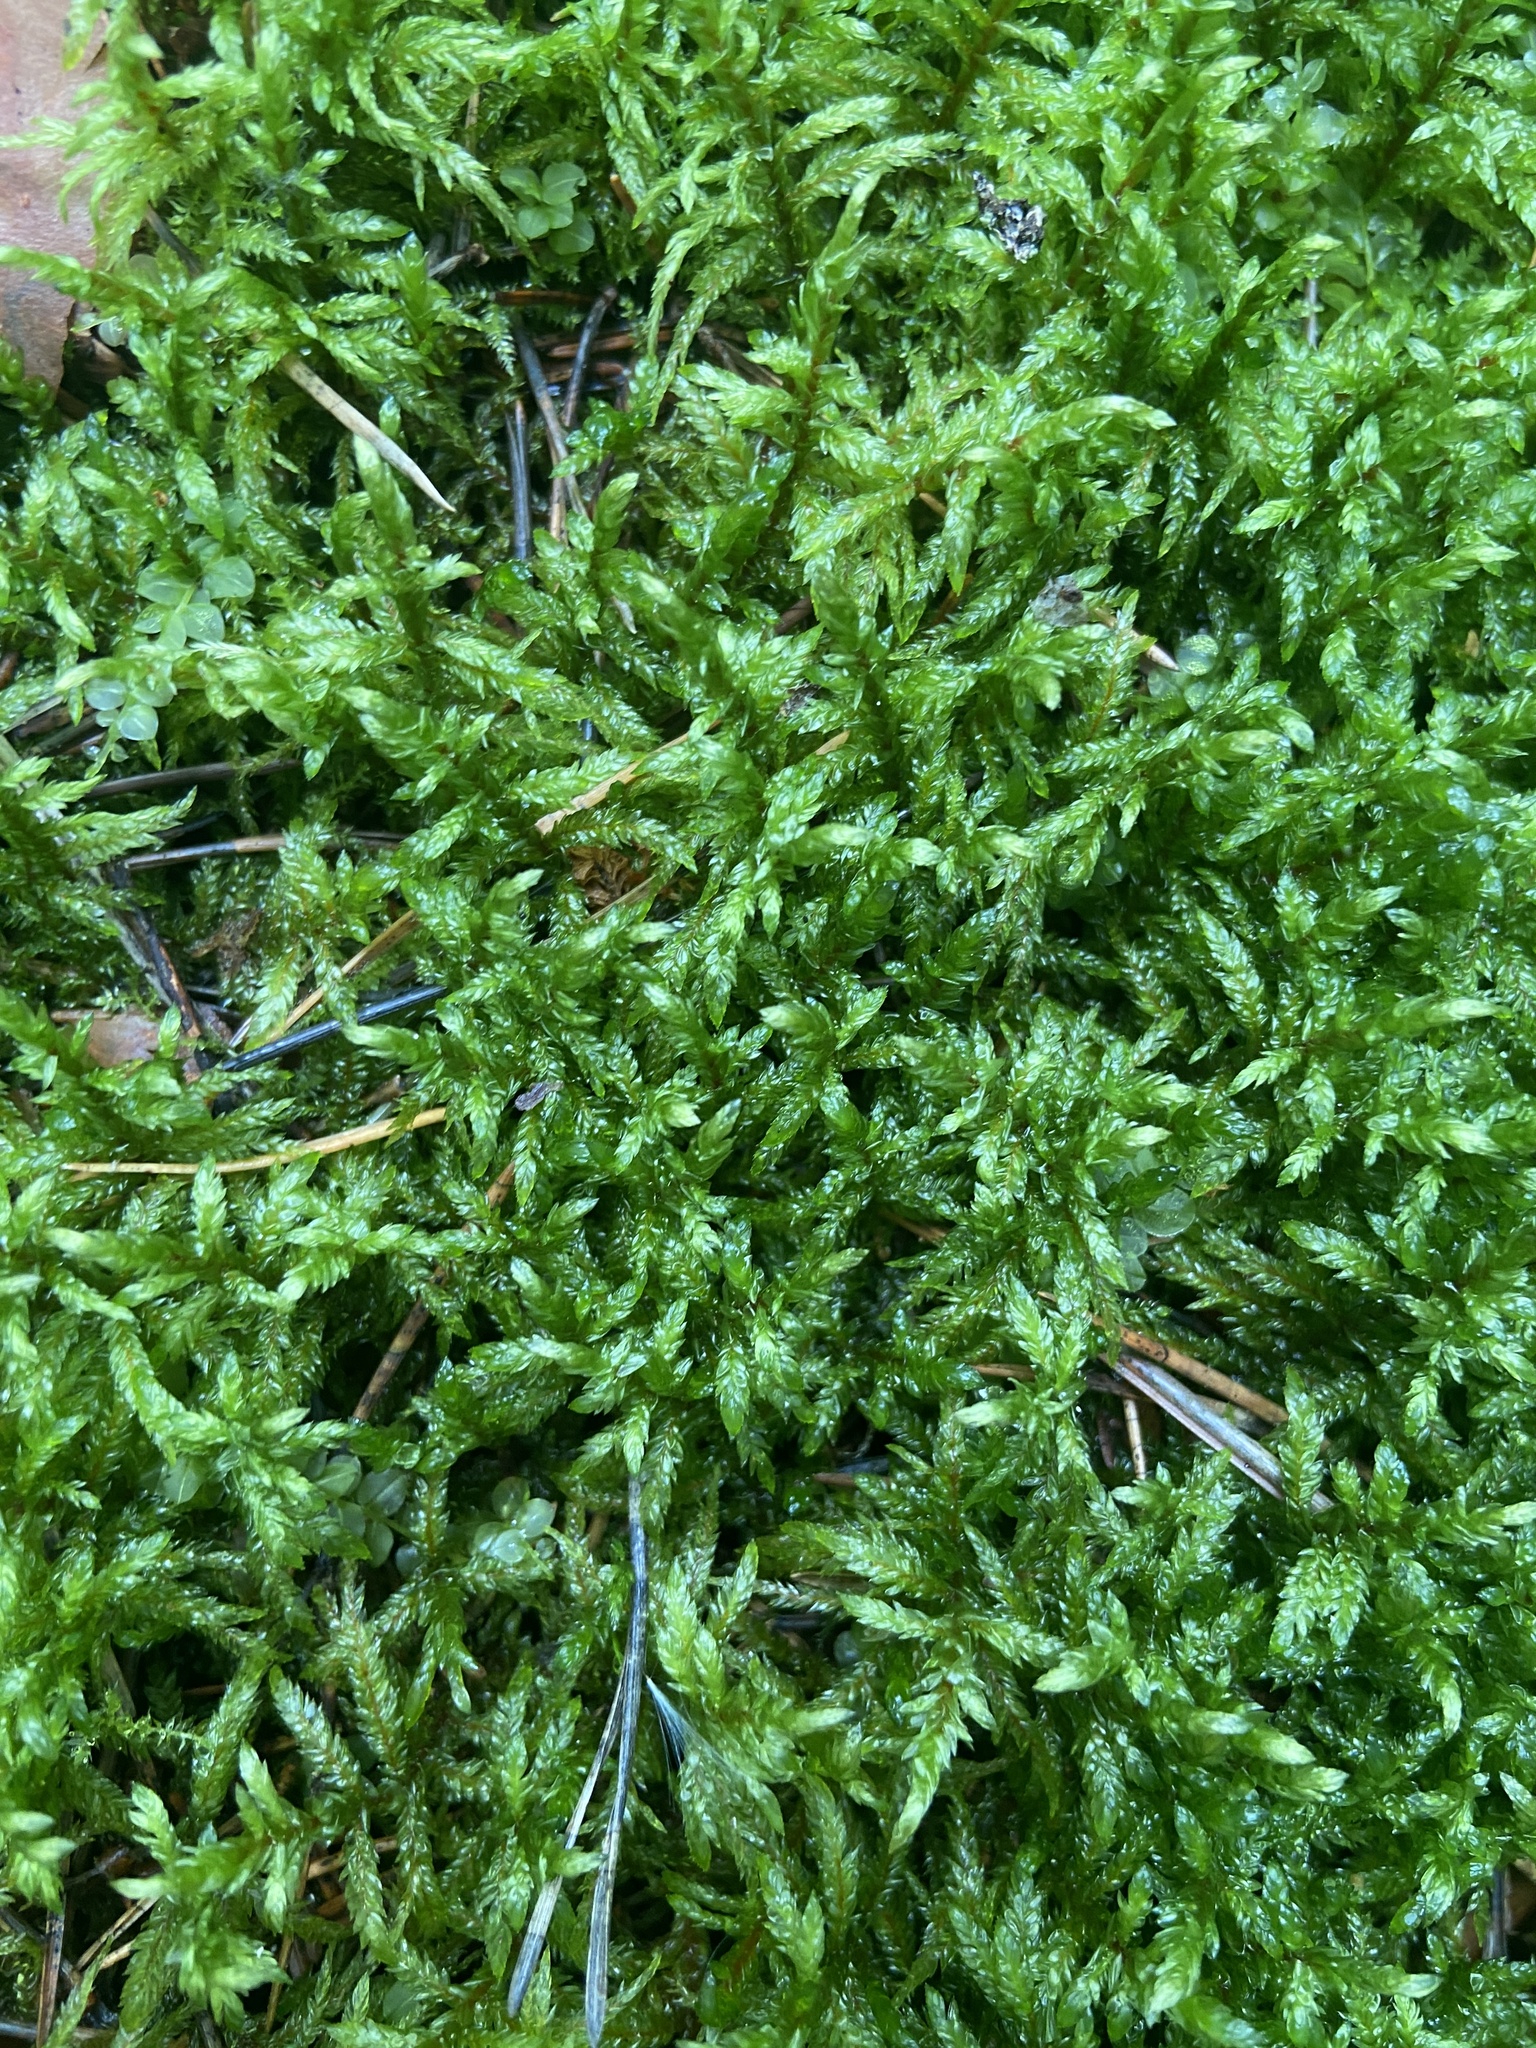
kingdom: Plantae
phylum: Bryophyta
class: Bryopsida
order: Hypnales
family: Hylocomiaceae
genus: Pleurozium
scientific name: Pleurozium schreberi
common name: Red-stemmed feather moss
